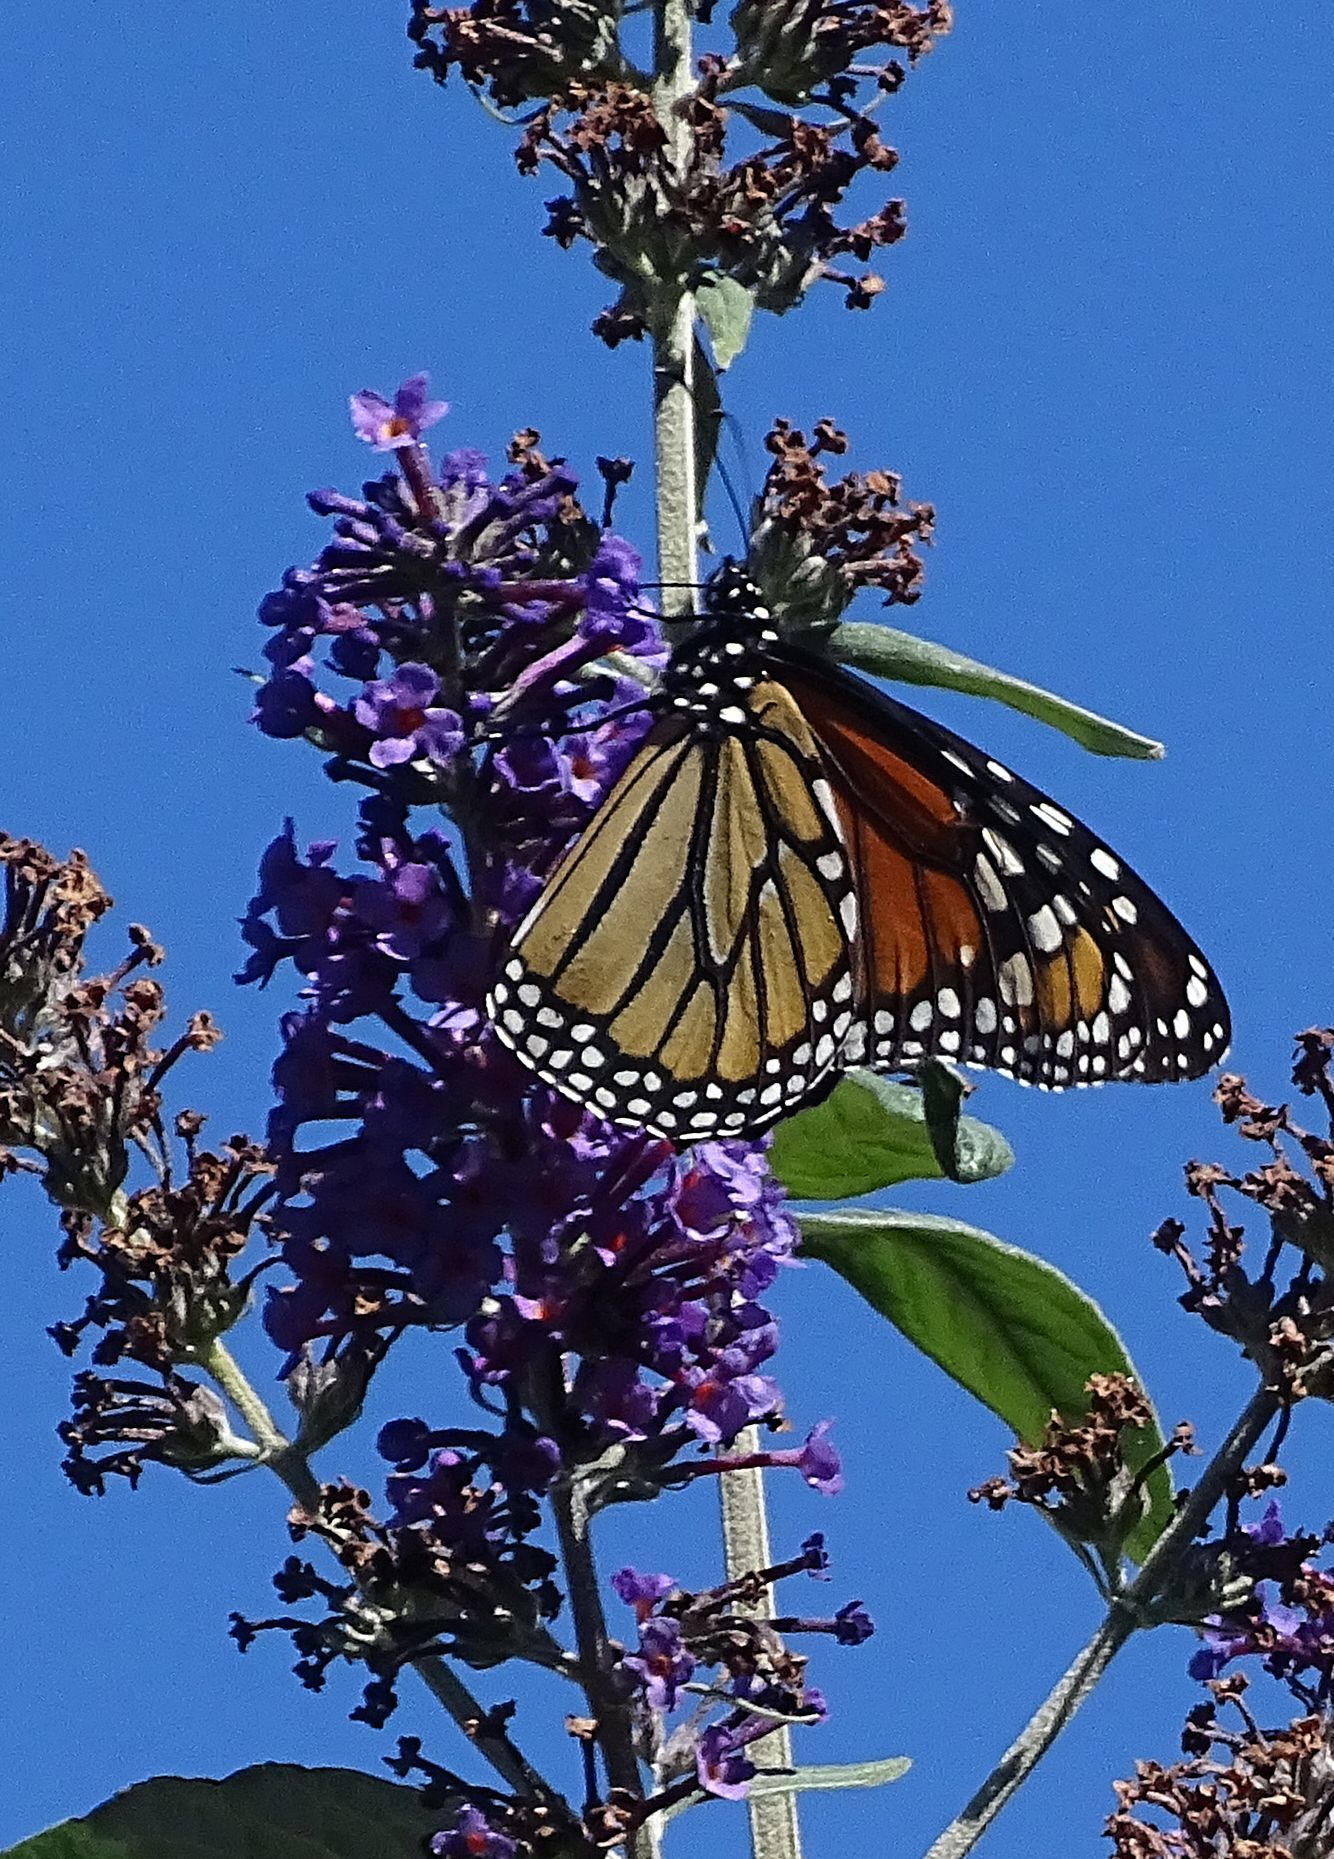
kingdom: Animalia
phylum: Arthropoda
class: Insecta
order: Lepidoptera
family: Nymphalidae
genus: Danaus
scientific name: Danaus plexippus
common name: Monarch
